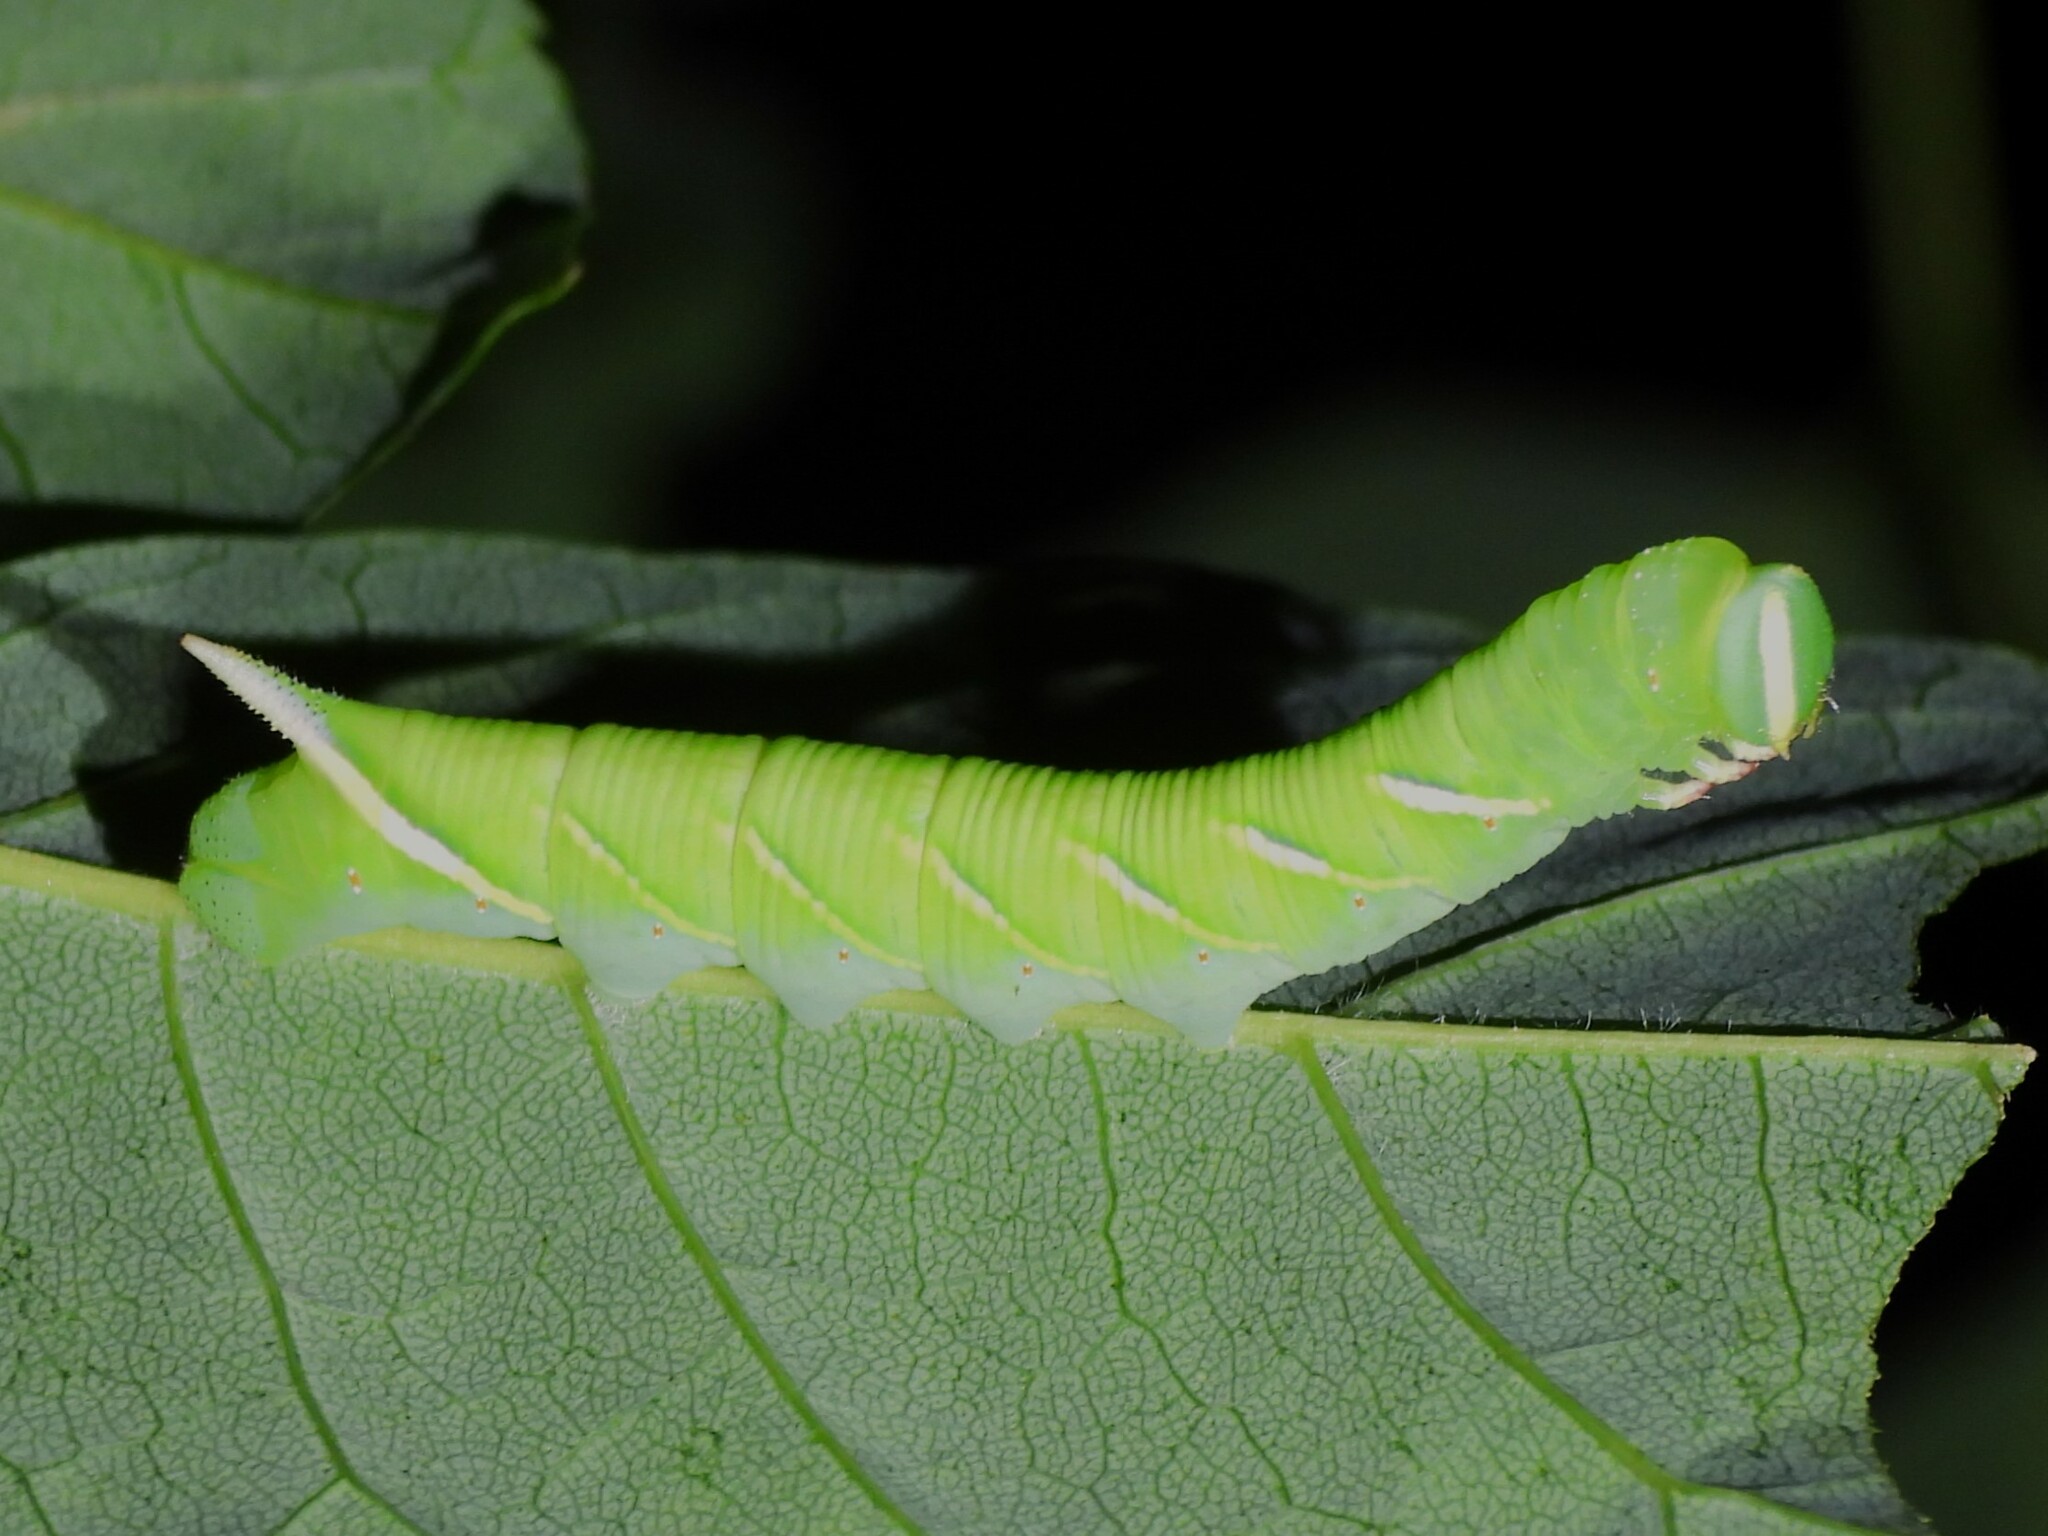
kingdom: Animalia
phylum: Arthropoda
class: Insecta
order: Lepidoptera
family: Sphingidae
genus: Ceratomia
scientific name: Ceratomia undulosa
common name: Waved sphinx
